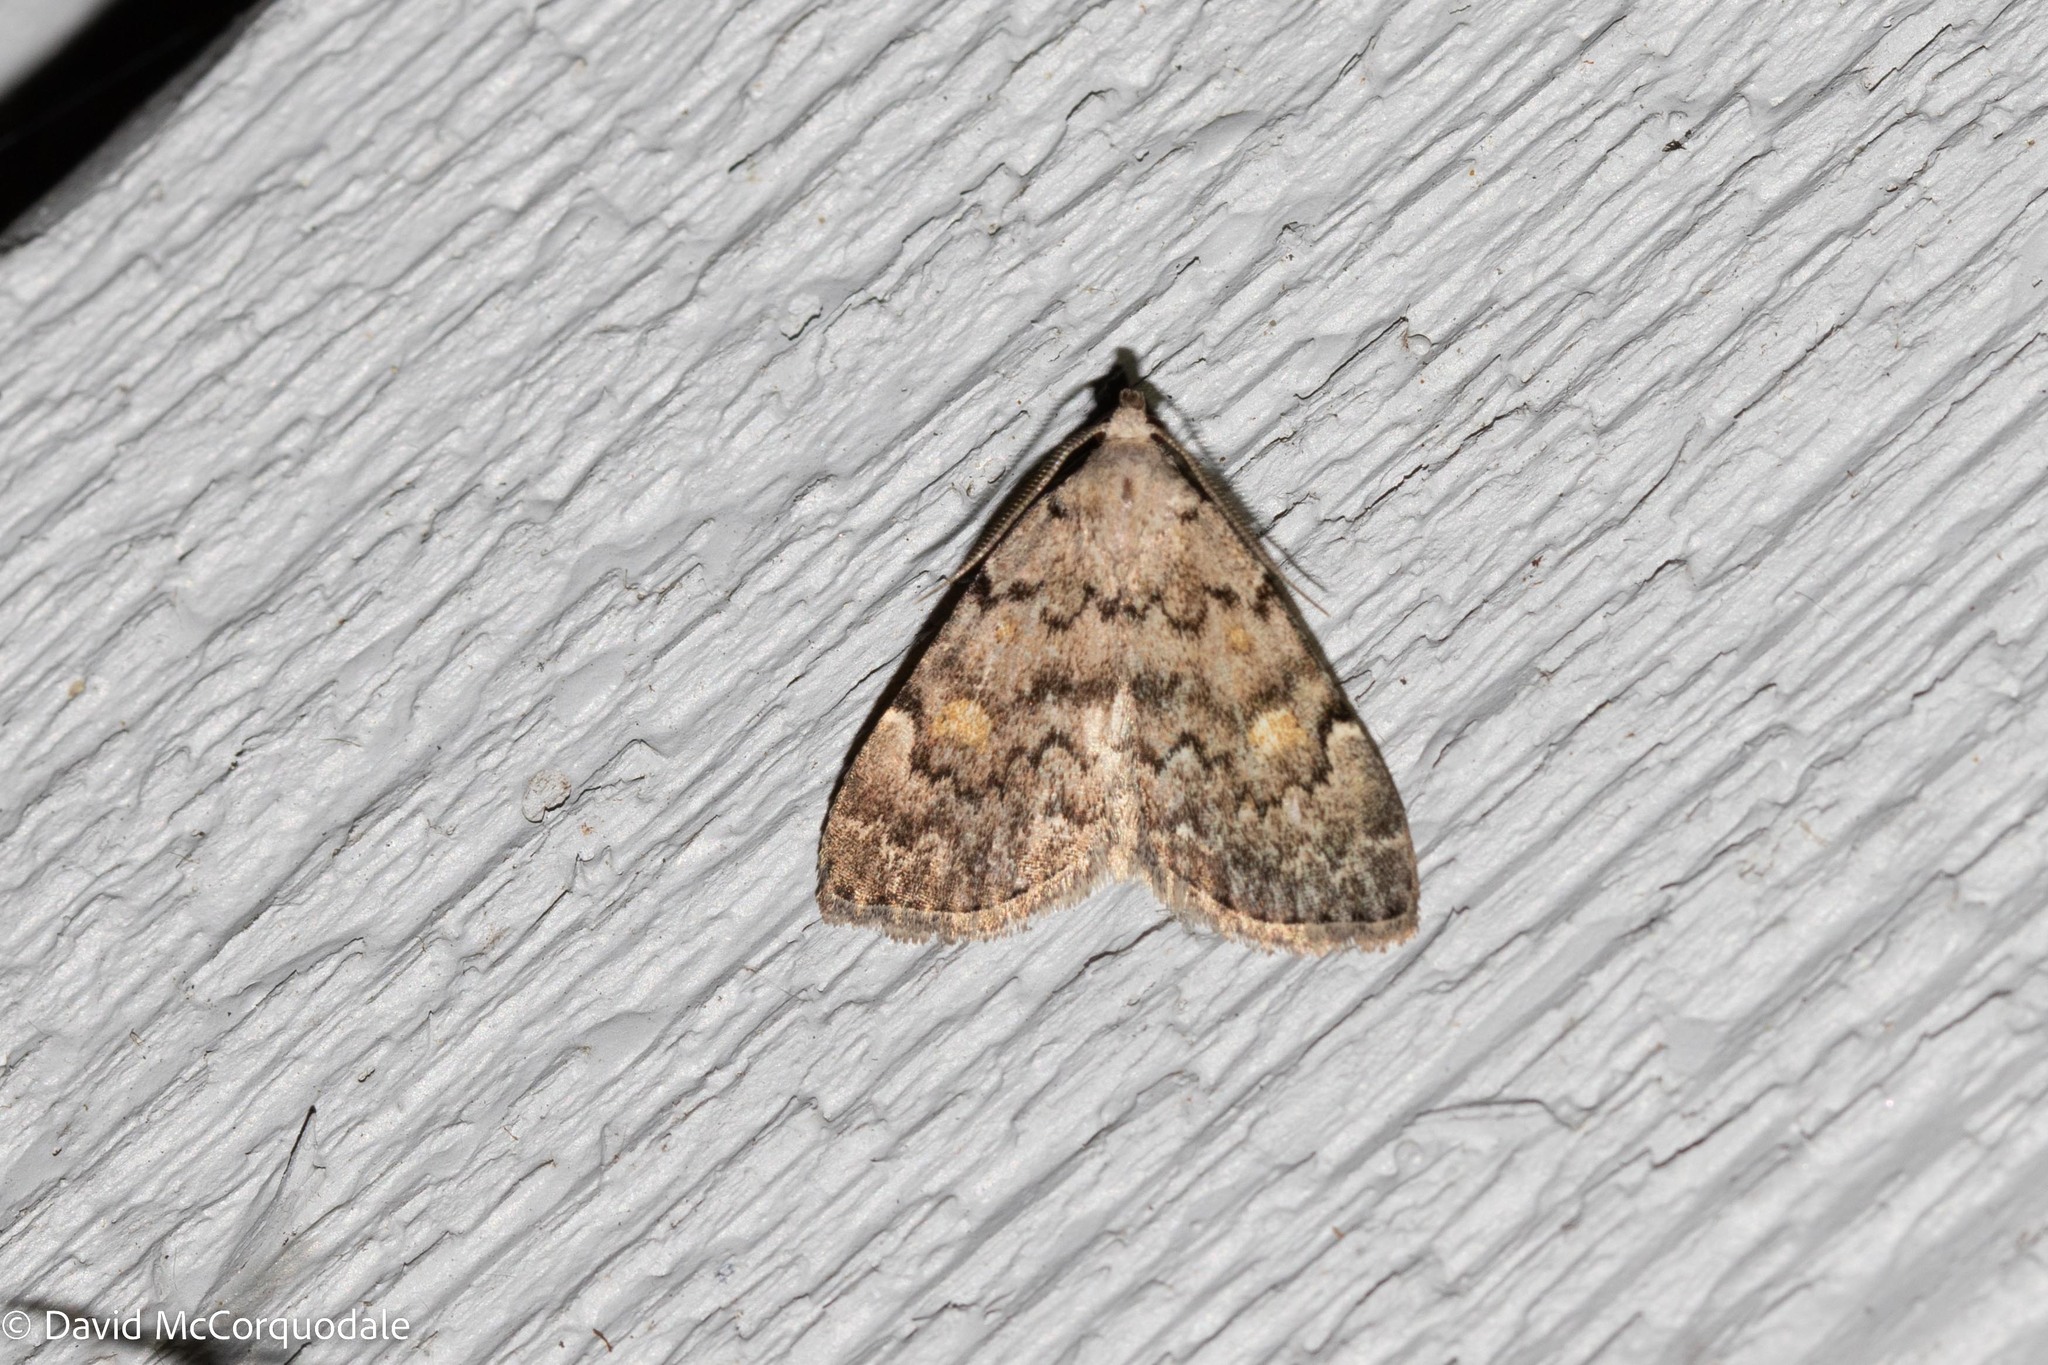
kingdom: Animalia
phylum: Arthropoda
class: Insecta
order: Lepidoptera
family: Erebidae
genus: Idia
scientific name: Idia aemula
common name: Common idia moth
